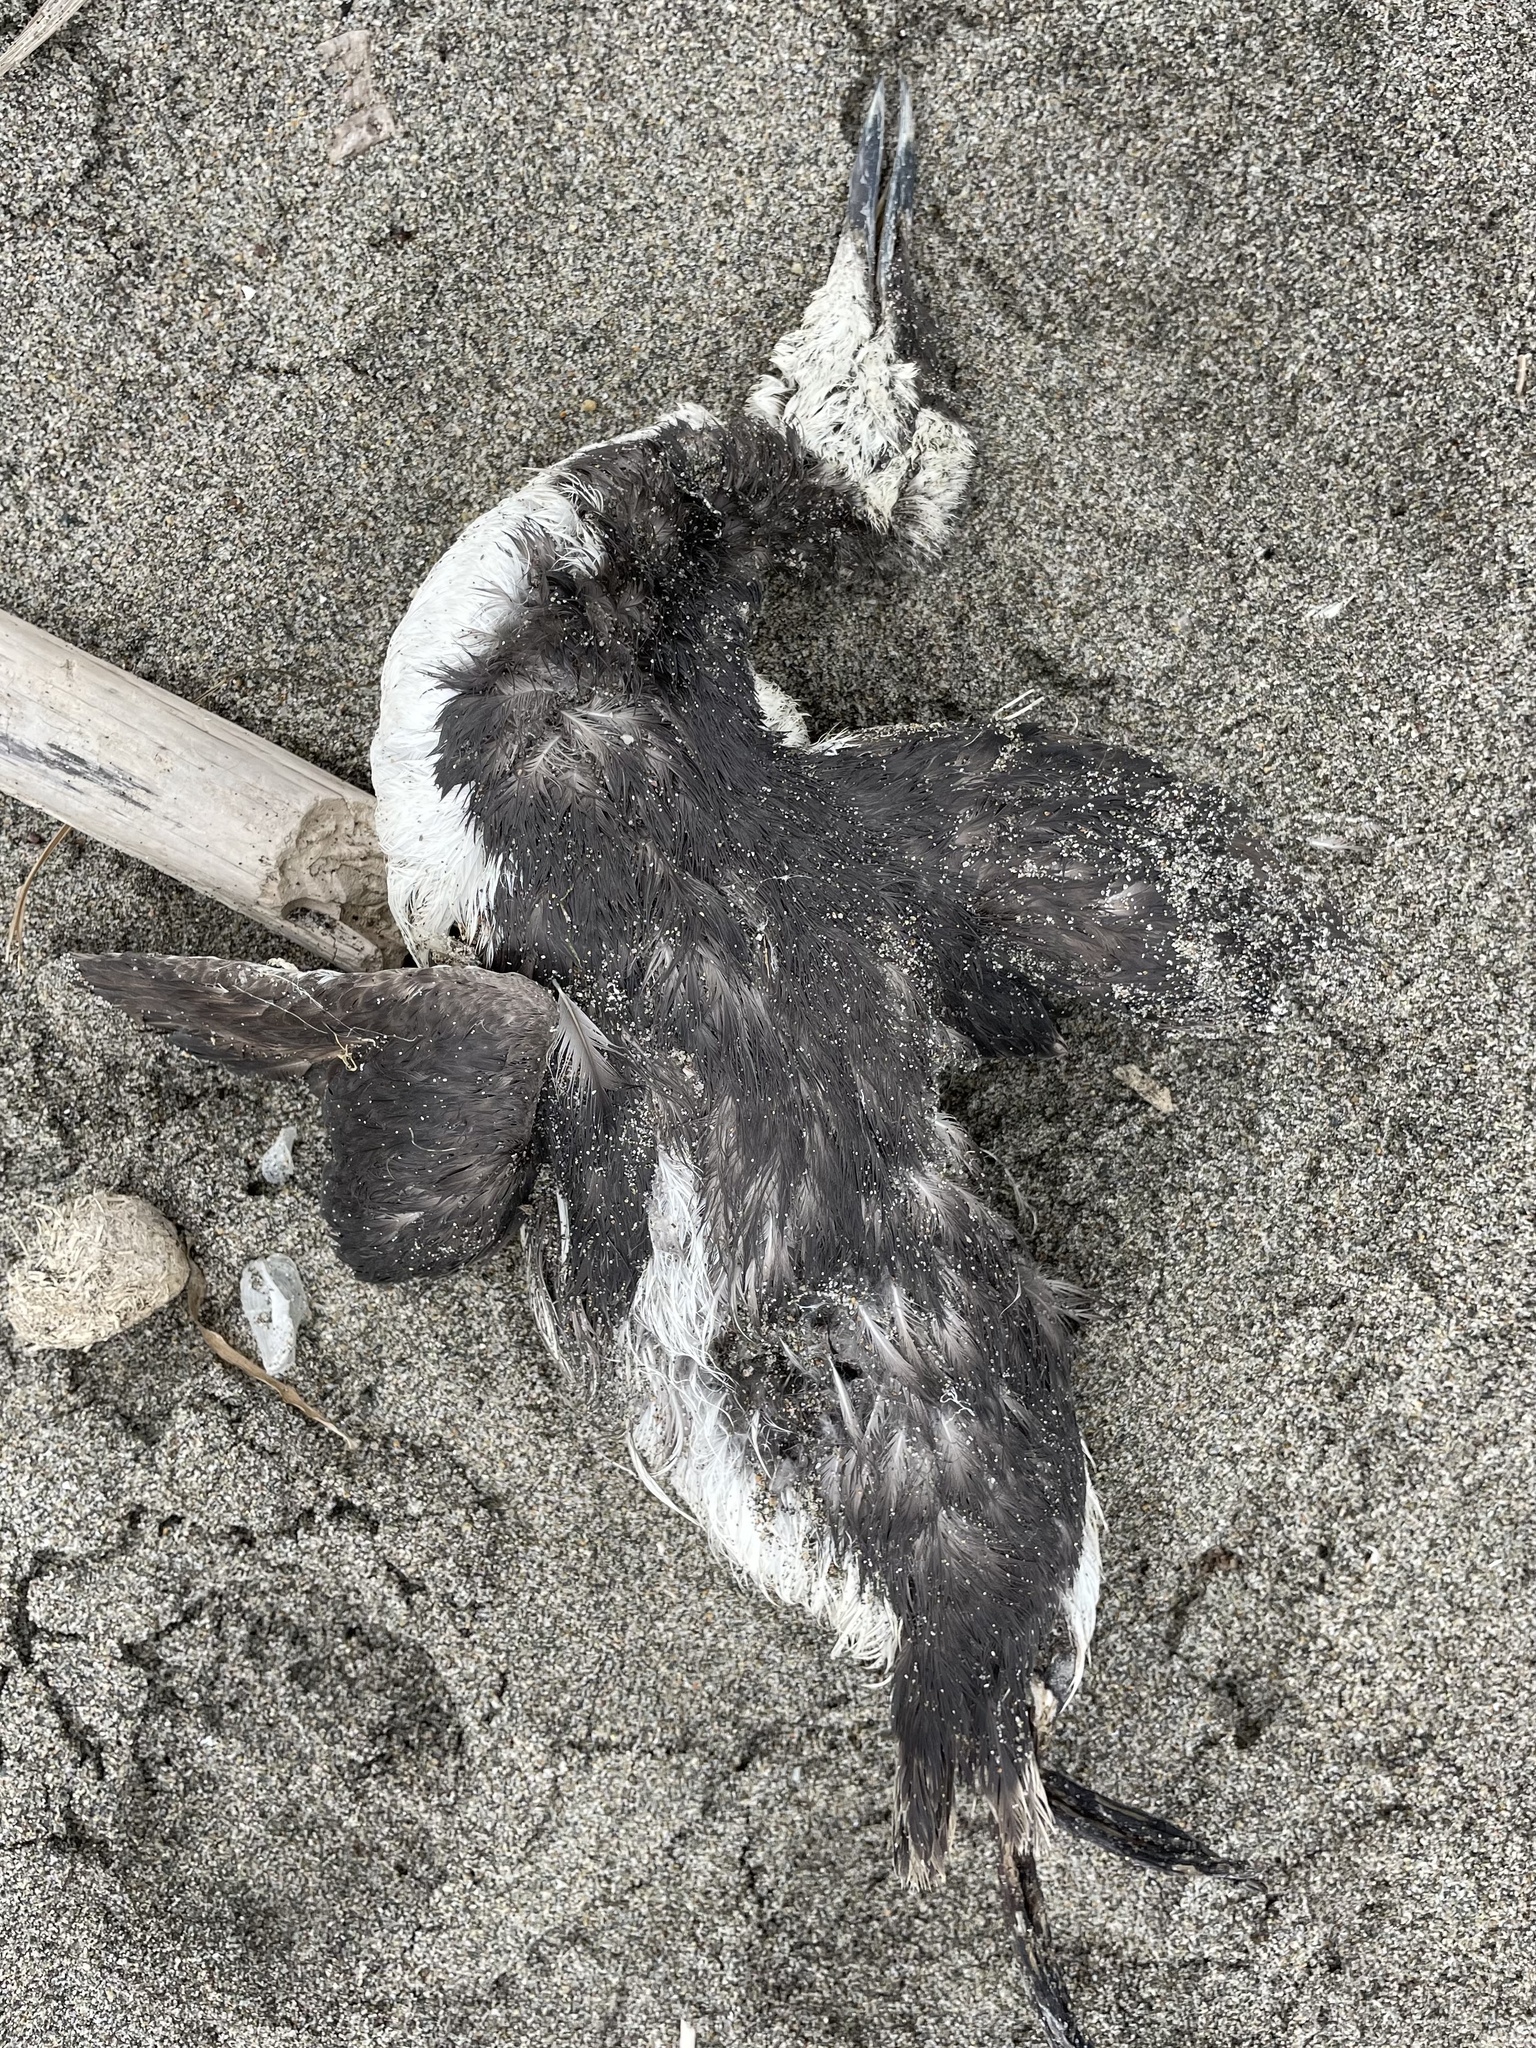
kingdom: Animalia
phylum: Chordata
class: Aves
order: Charadriiformes
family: Alcidae
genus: Uria
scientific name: Uria aalge
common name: Common murre
